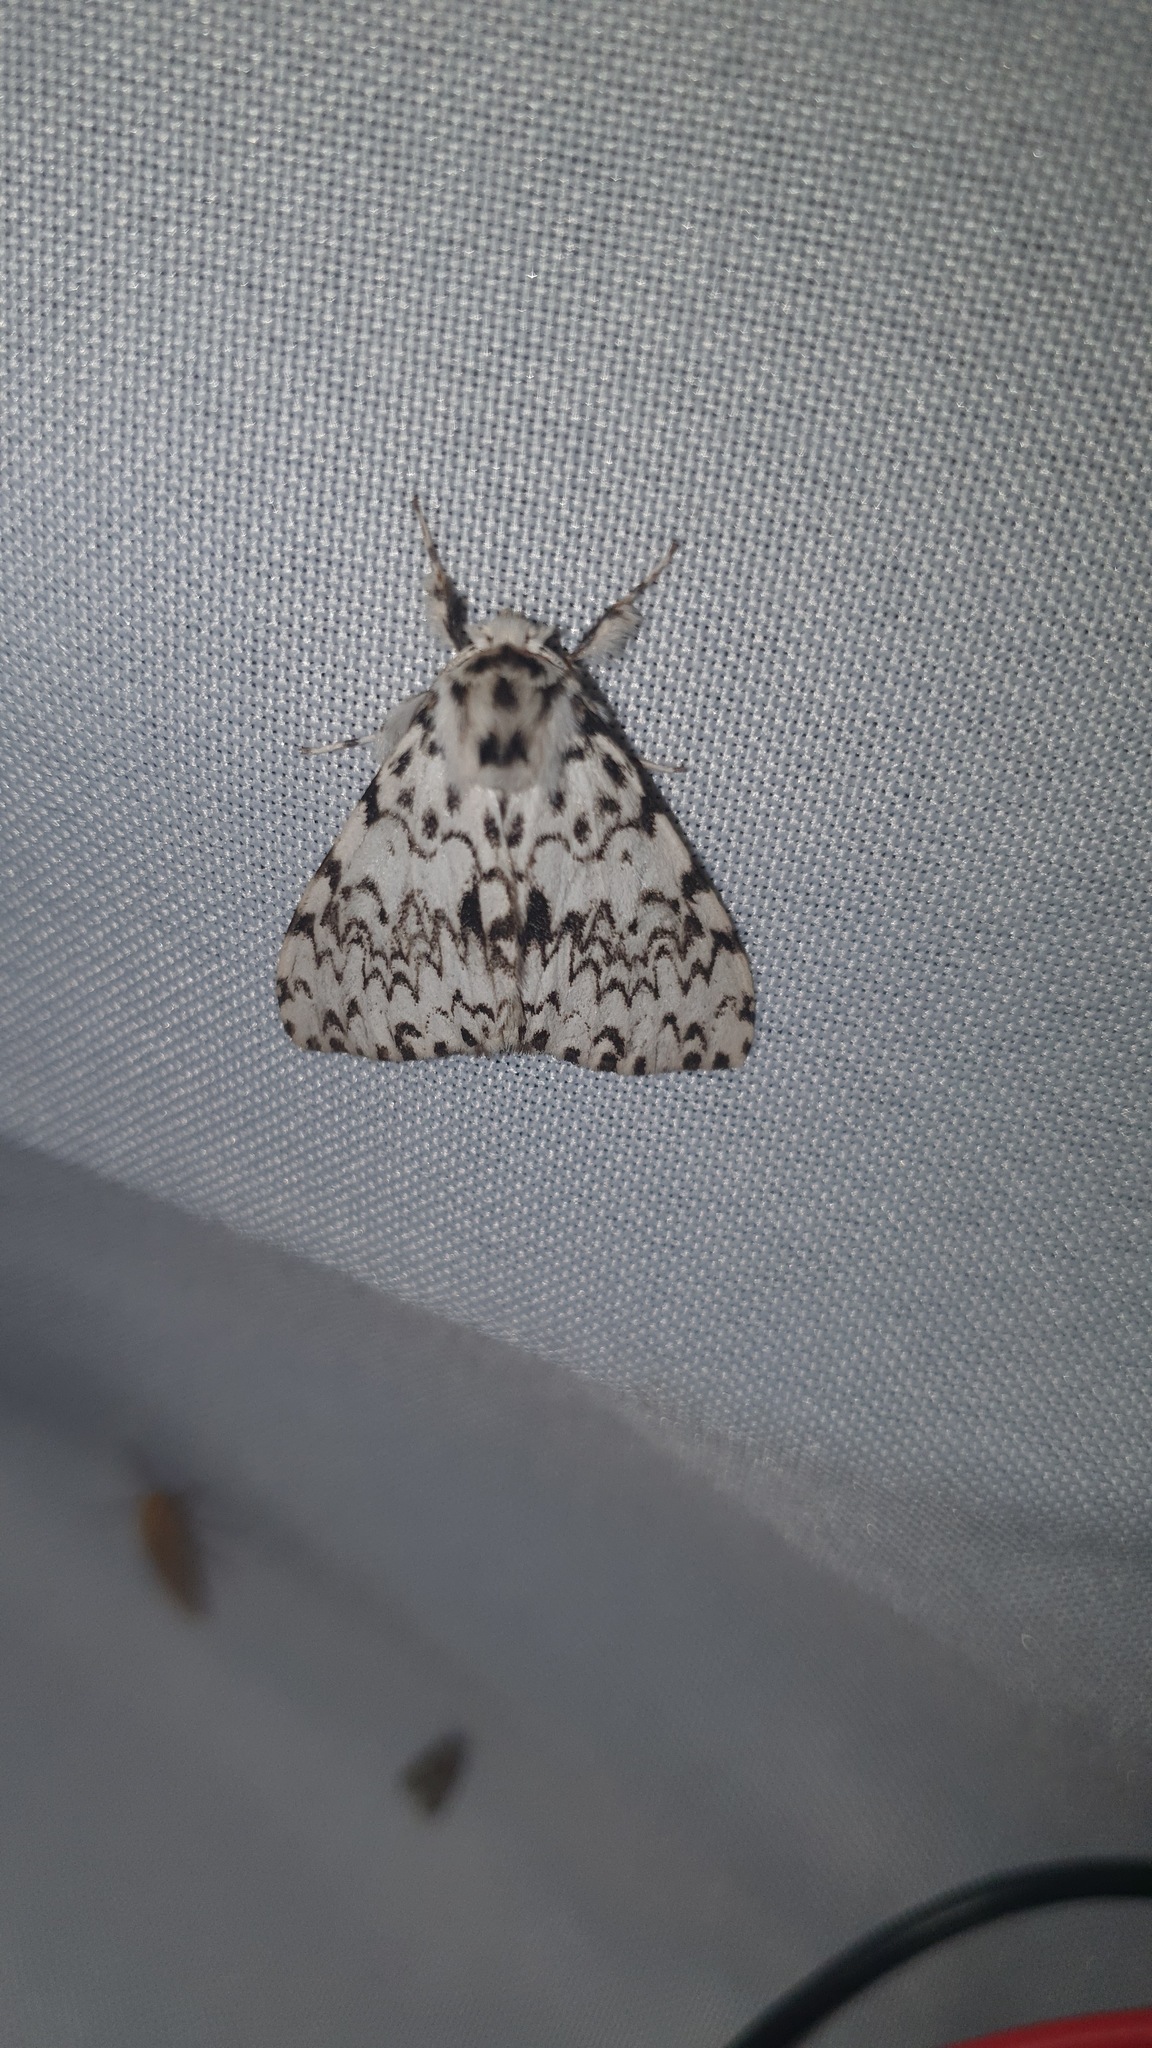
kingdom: Animalia
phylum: Arthropoda
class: Insecta
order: Lepidoptera
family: Erebidae
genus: Lymantria
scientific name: Lymantria monacha
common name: Black arches
